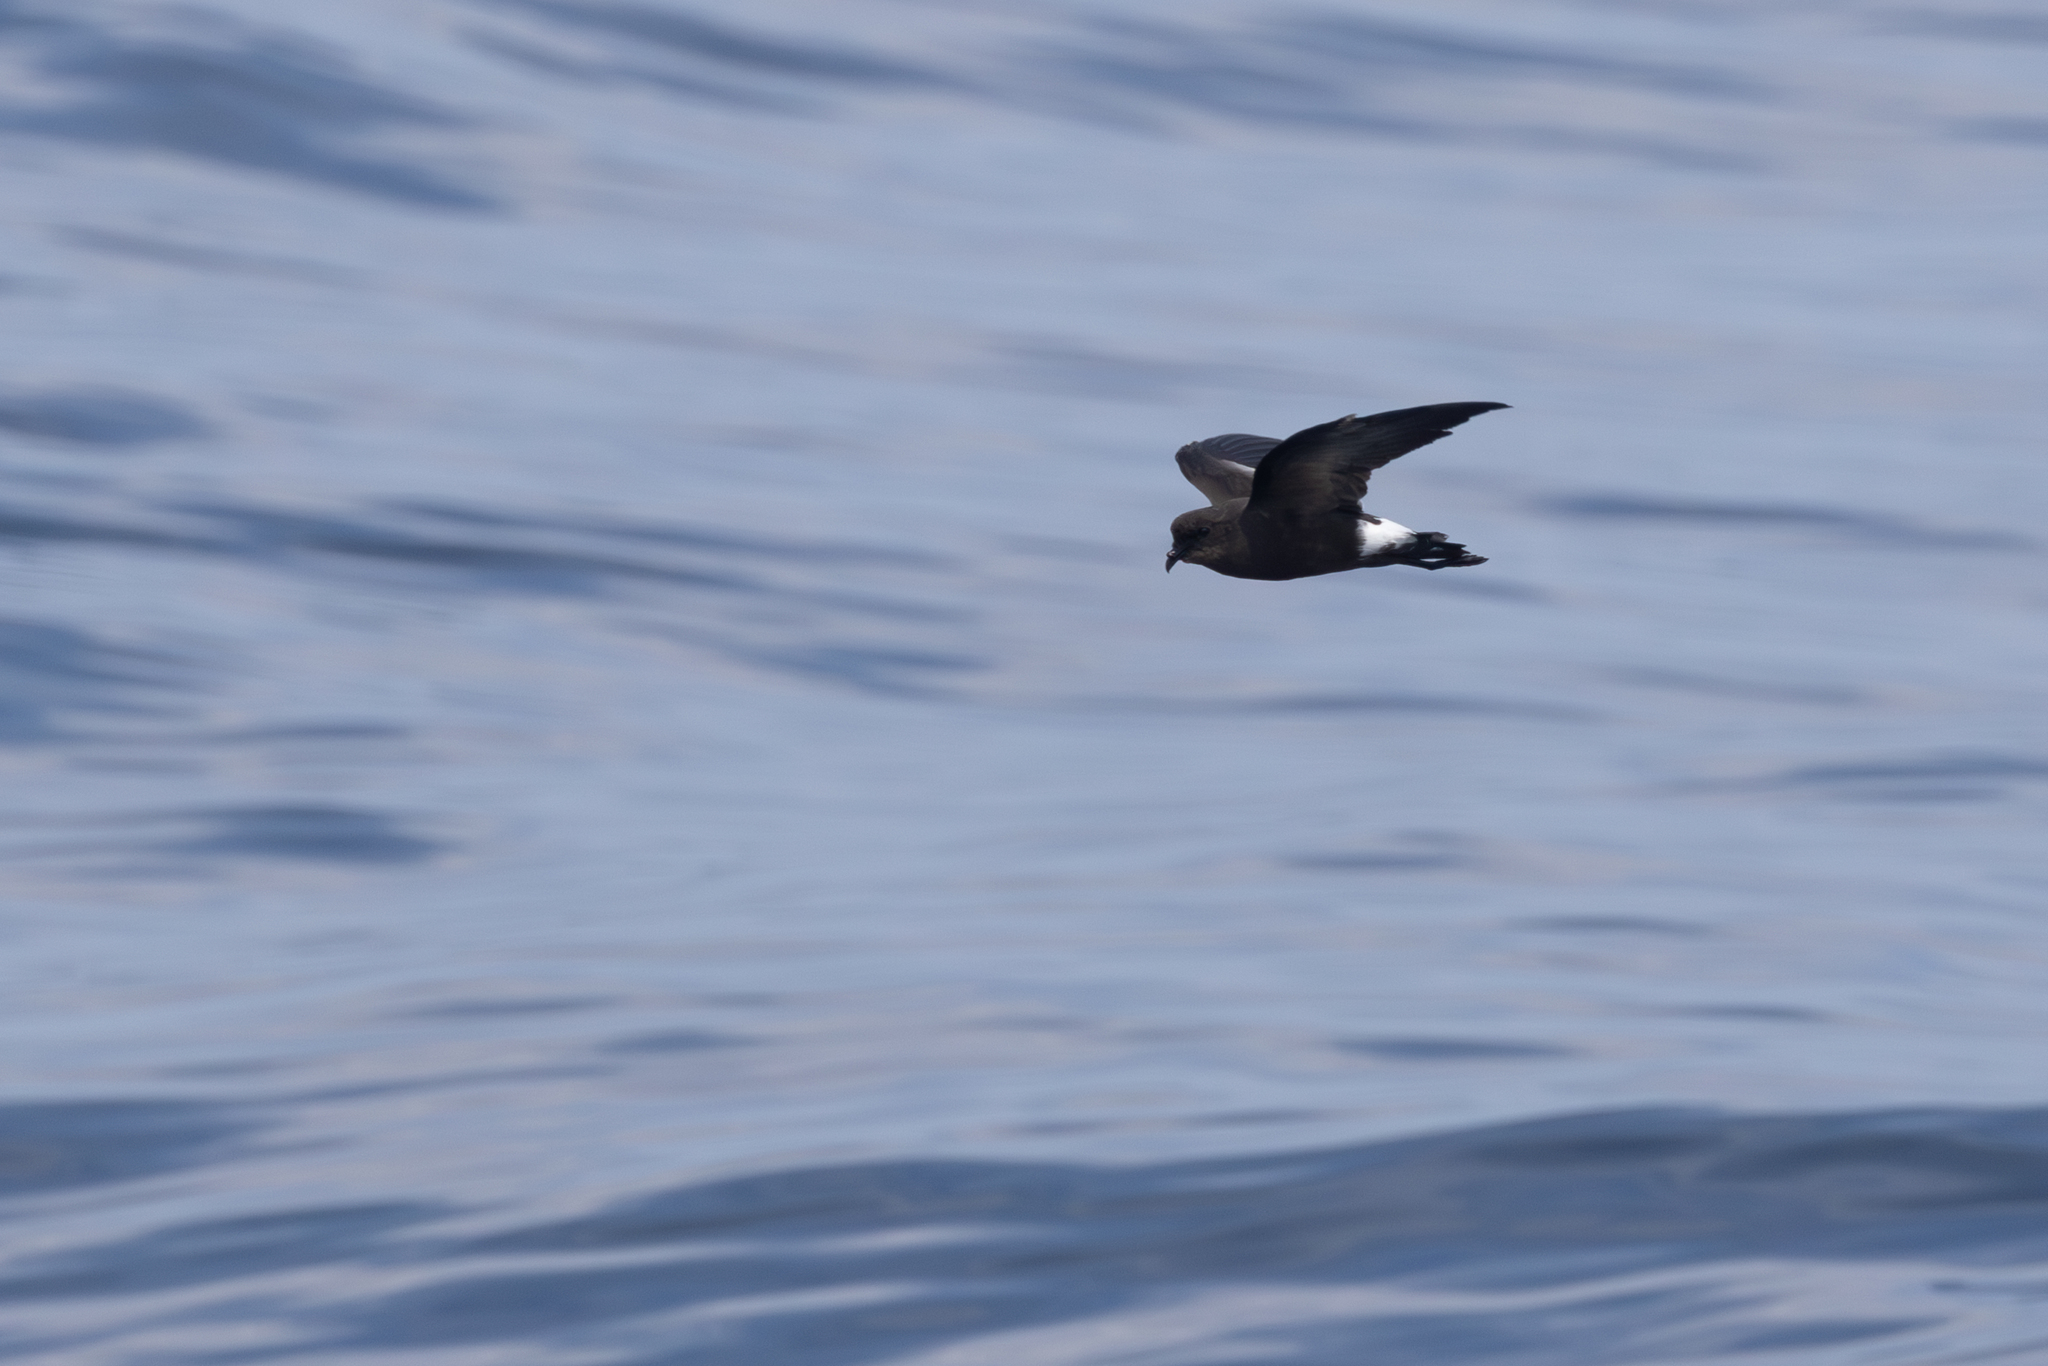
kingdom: Animalia
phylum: Chordata
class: Aves
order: Procellariiformes
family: Hydrobatidae
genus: Oceanites
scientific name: Oceanites oceanicus
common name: Wilson's storm petrel
